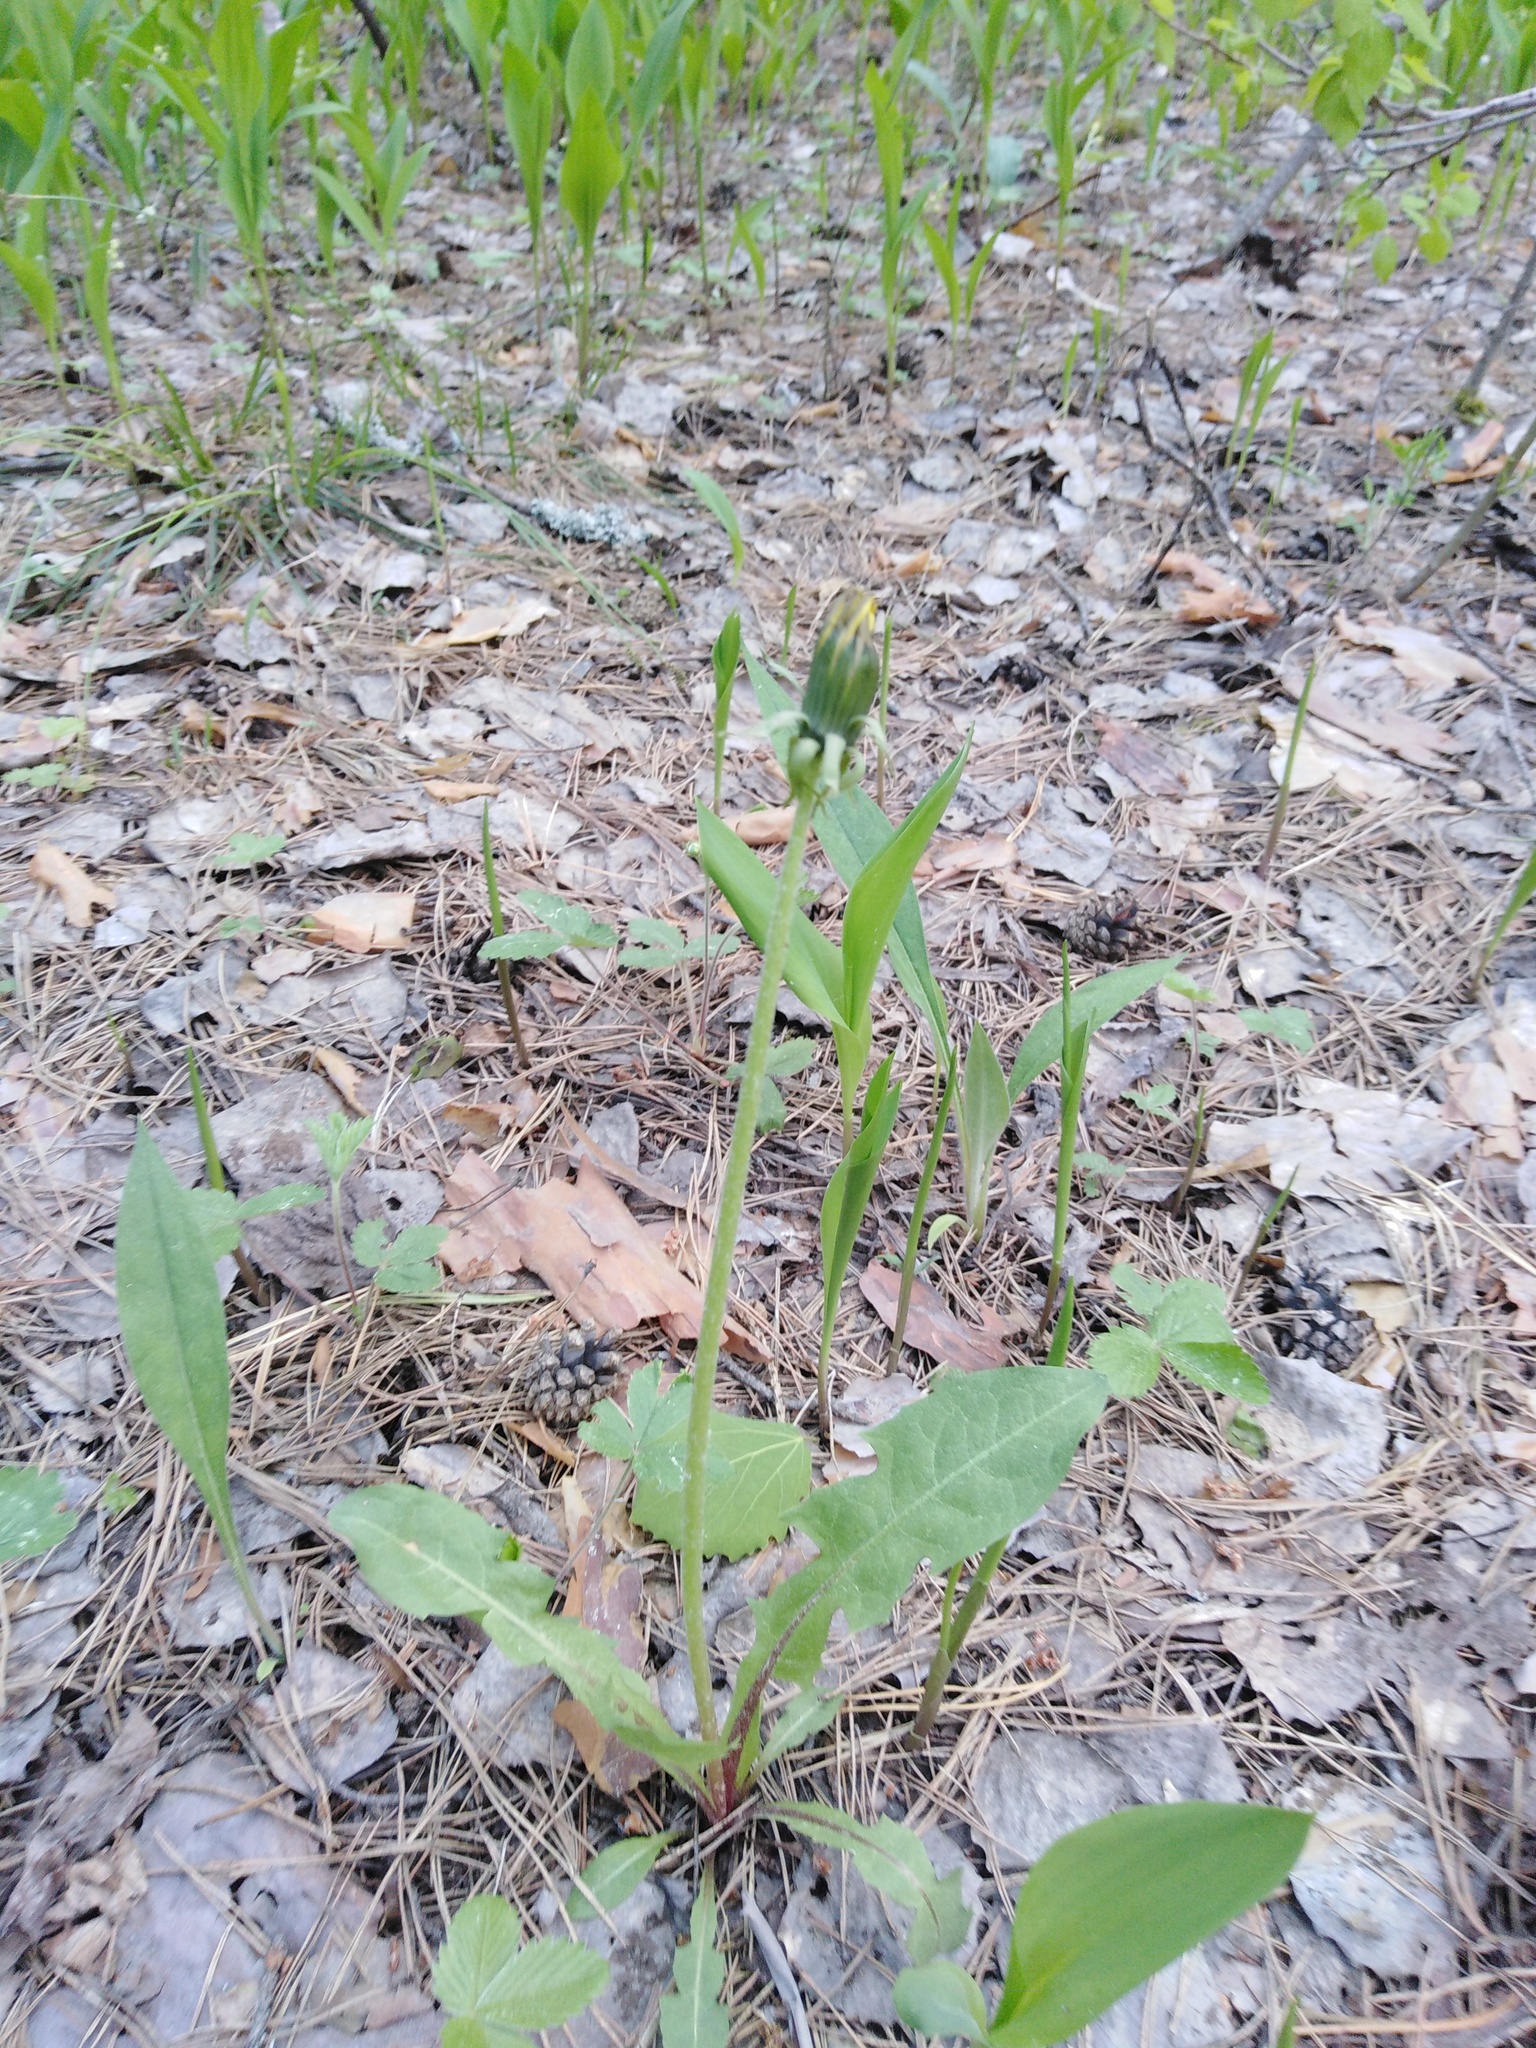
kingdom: Plantae
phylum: Tracheophyta
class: Magnoliopsida
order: Asterales
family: Asteraceae
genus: Taraxacum
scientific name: Taraxacum officinale
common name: Common dandelion
